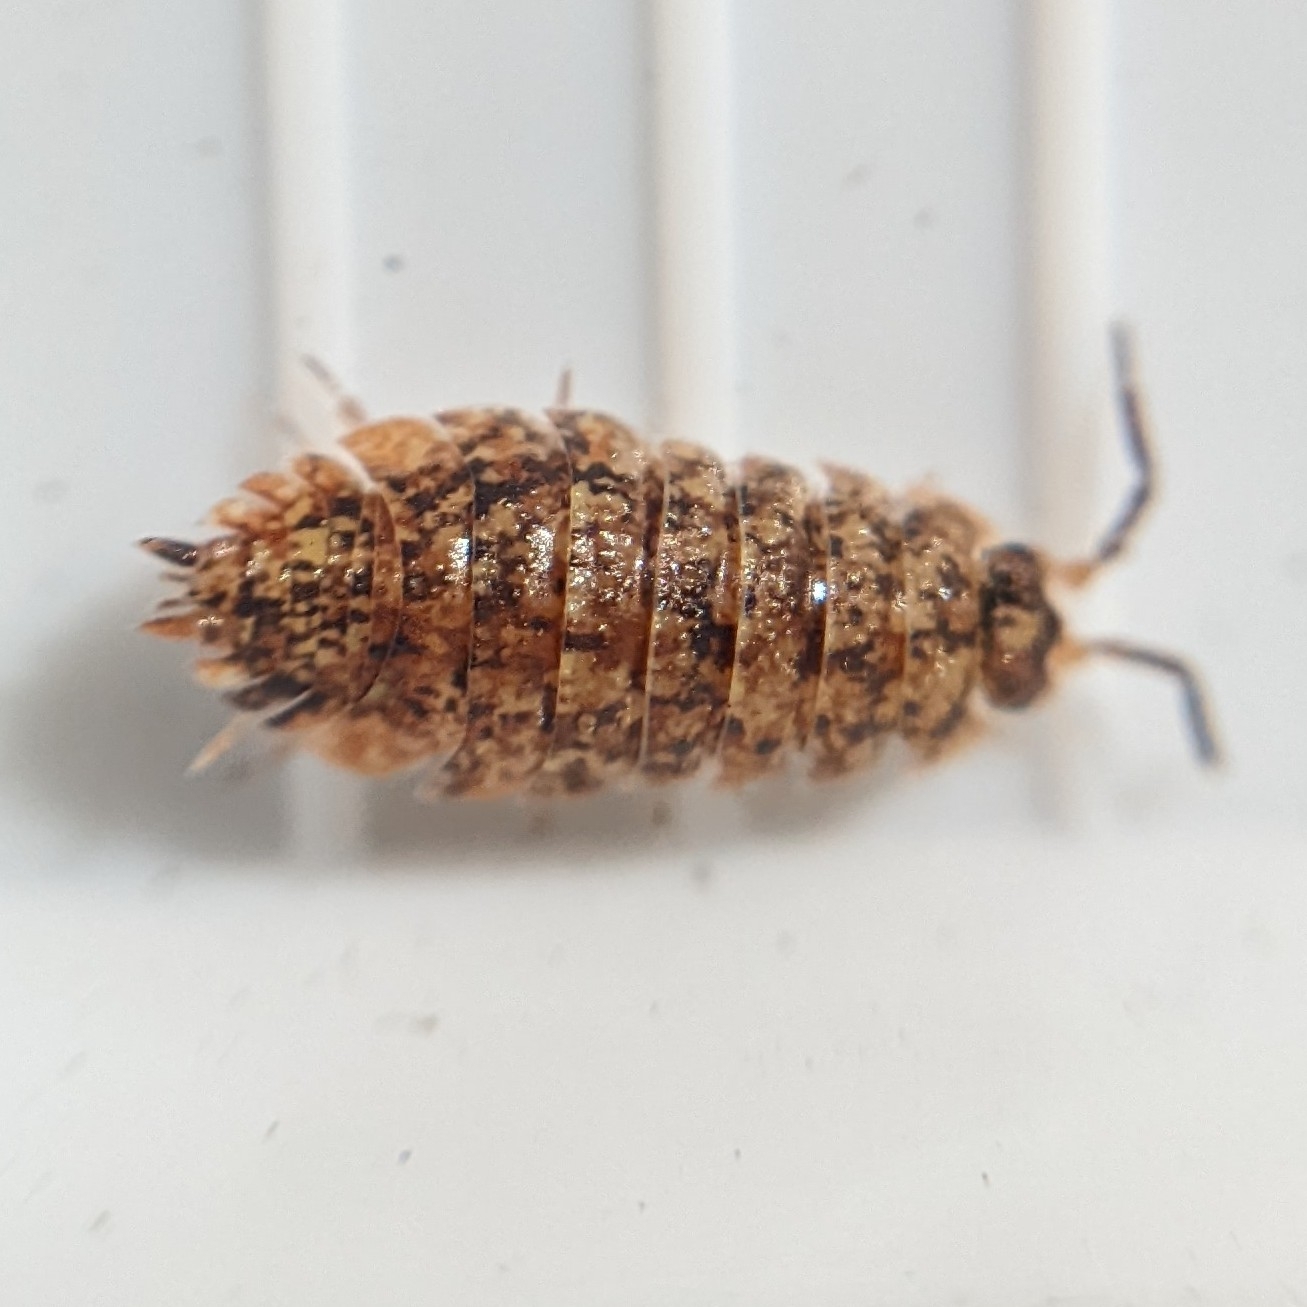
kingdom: Animalia
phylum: Arthropoda
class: Malacostraca
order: Isopoda
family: Porcellionidae
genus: Porcellio
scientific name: Porcellio scaber
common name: Common rough woodlouse
